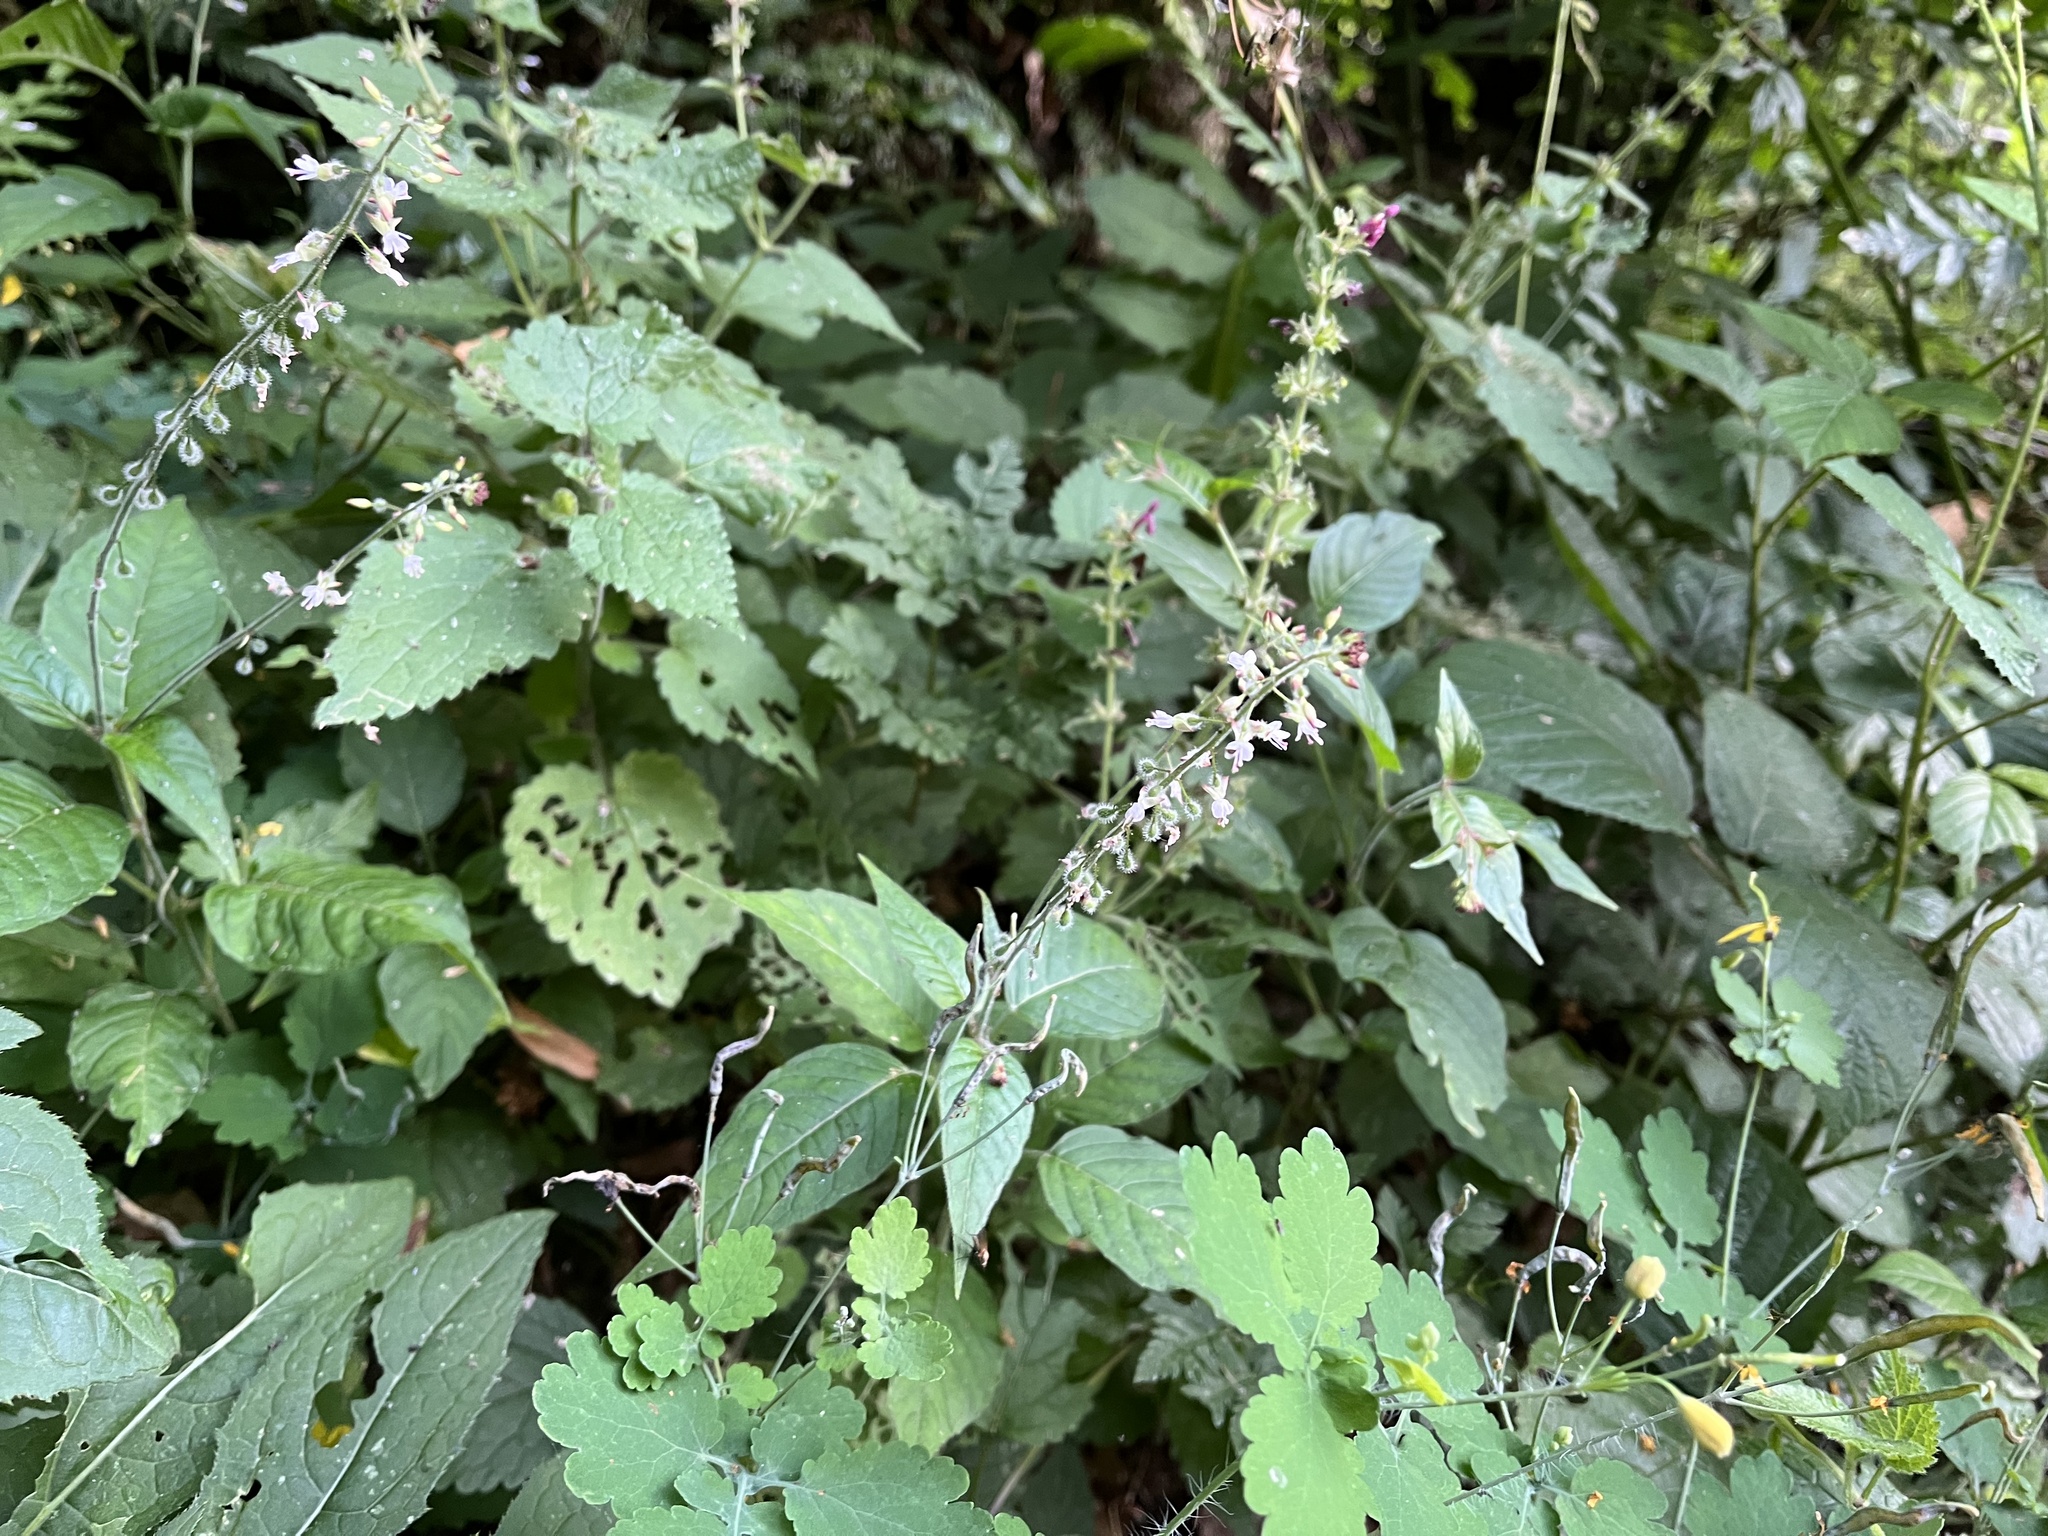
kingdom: Plantae
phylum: Tracheophyta
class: Magnoliopsida
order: Myrtales
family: Onagraceae
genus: Circaea
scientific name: Circaea lutetiana
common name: Enchanter's-nightshade
